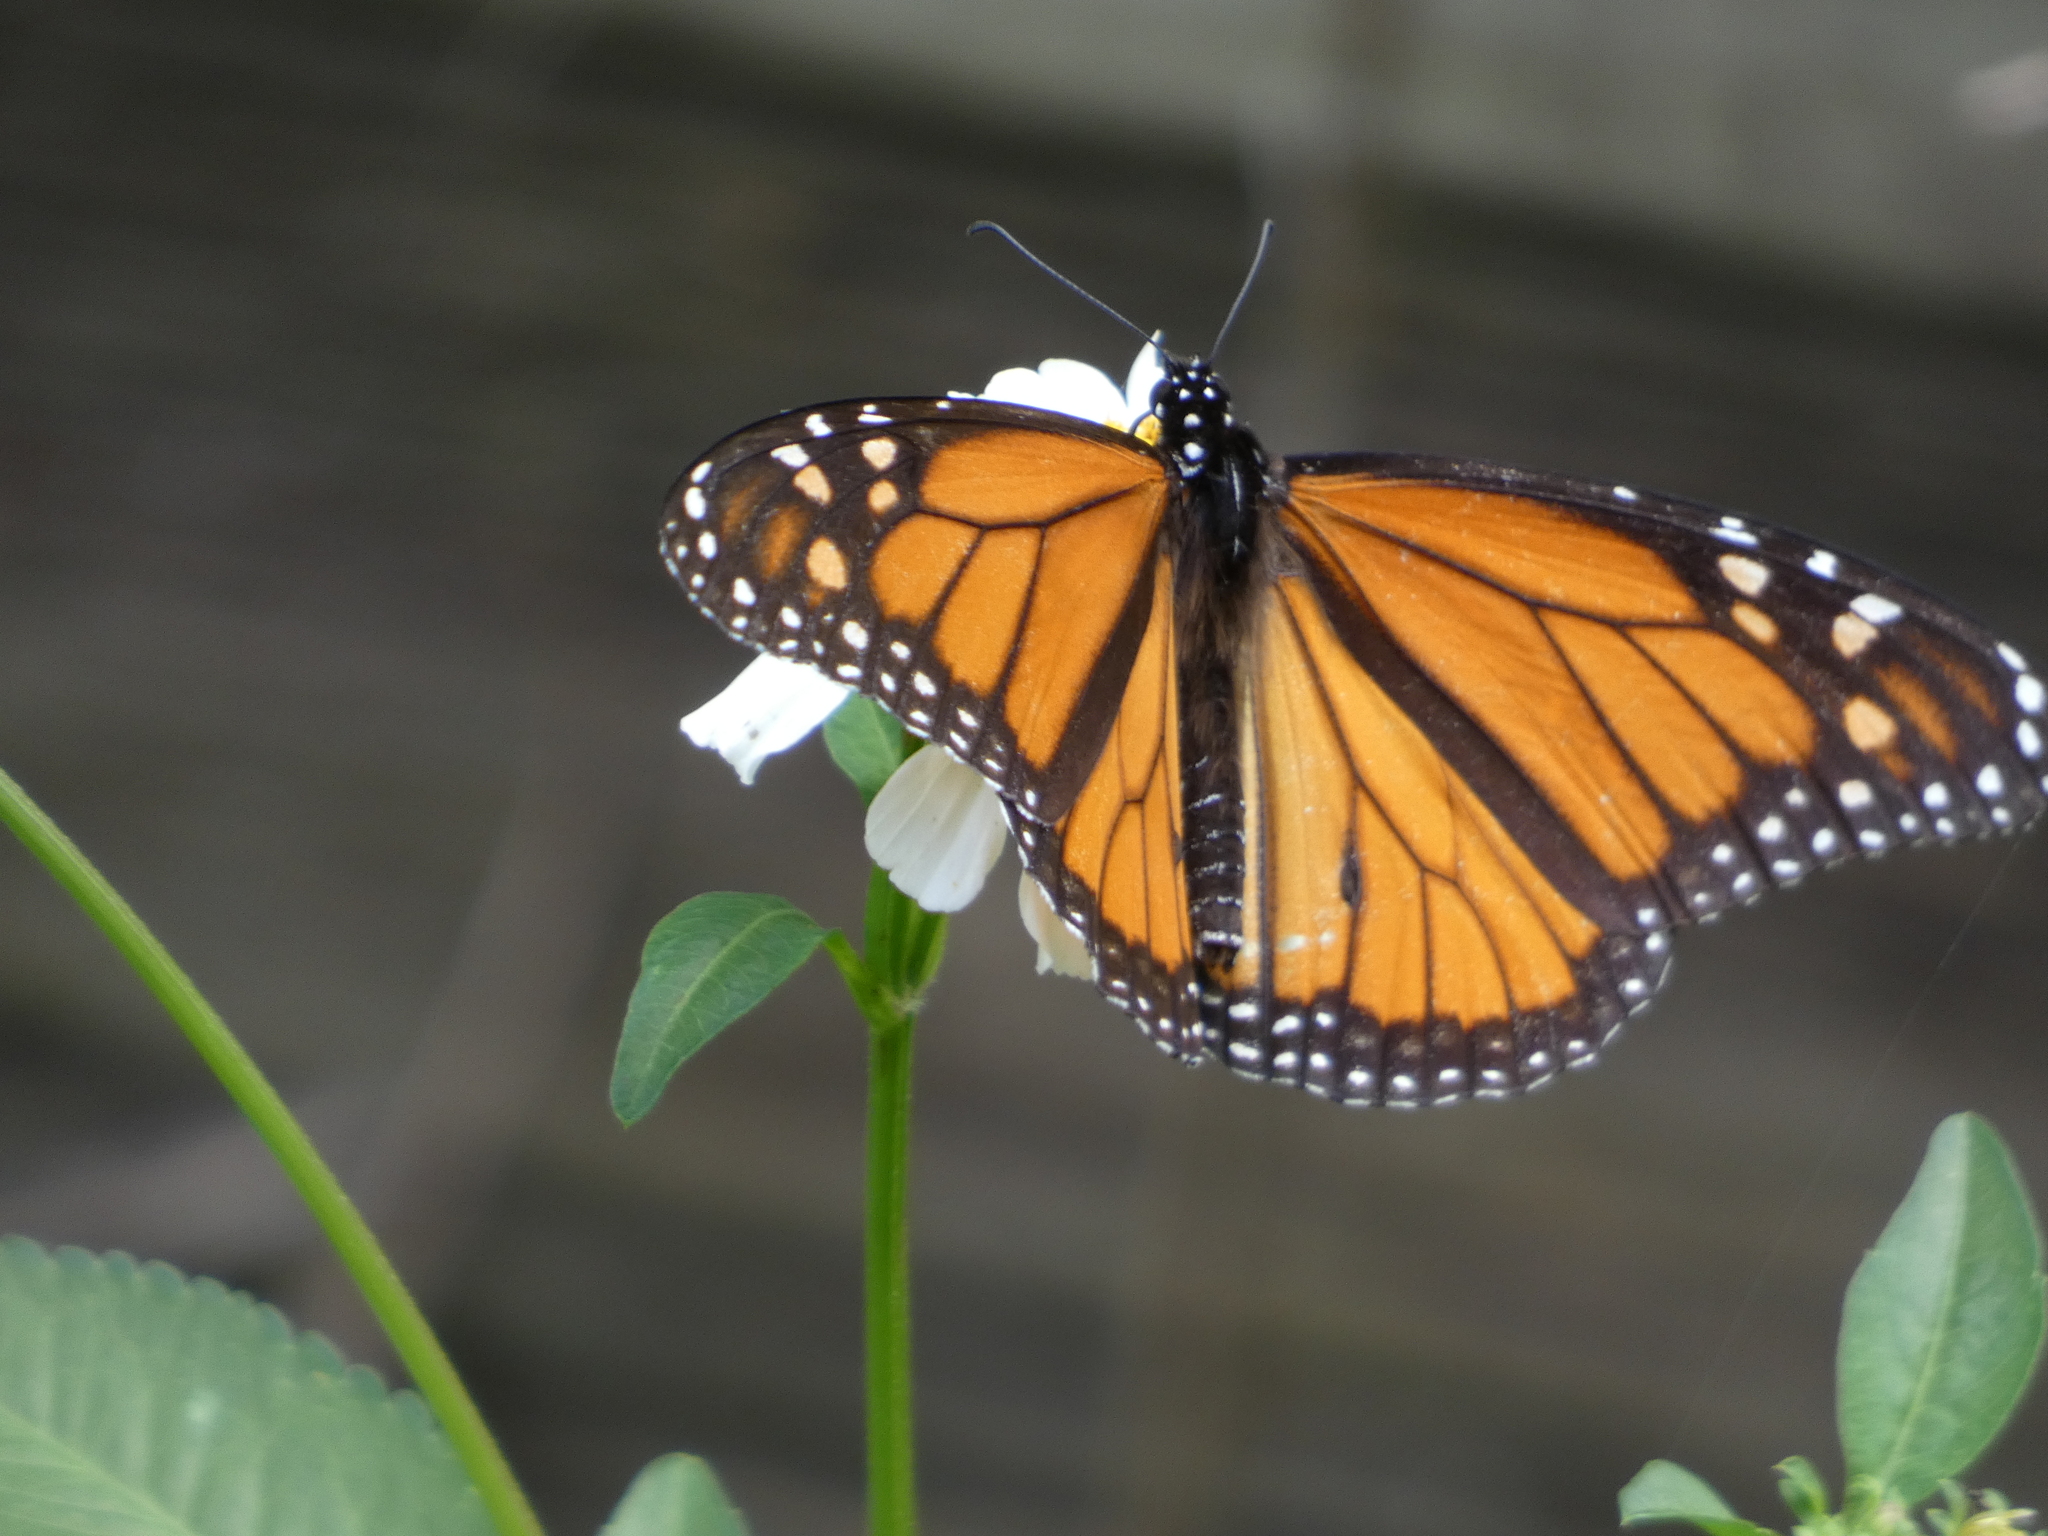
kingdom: Animalia
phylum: Arthropoda
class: Insecta
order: Lepidoptera
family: Nymphalidae
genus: Danaus
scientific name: Danaus plexippus
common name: Monarch
